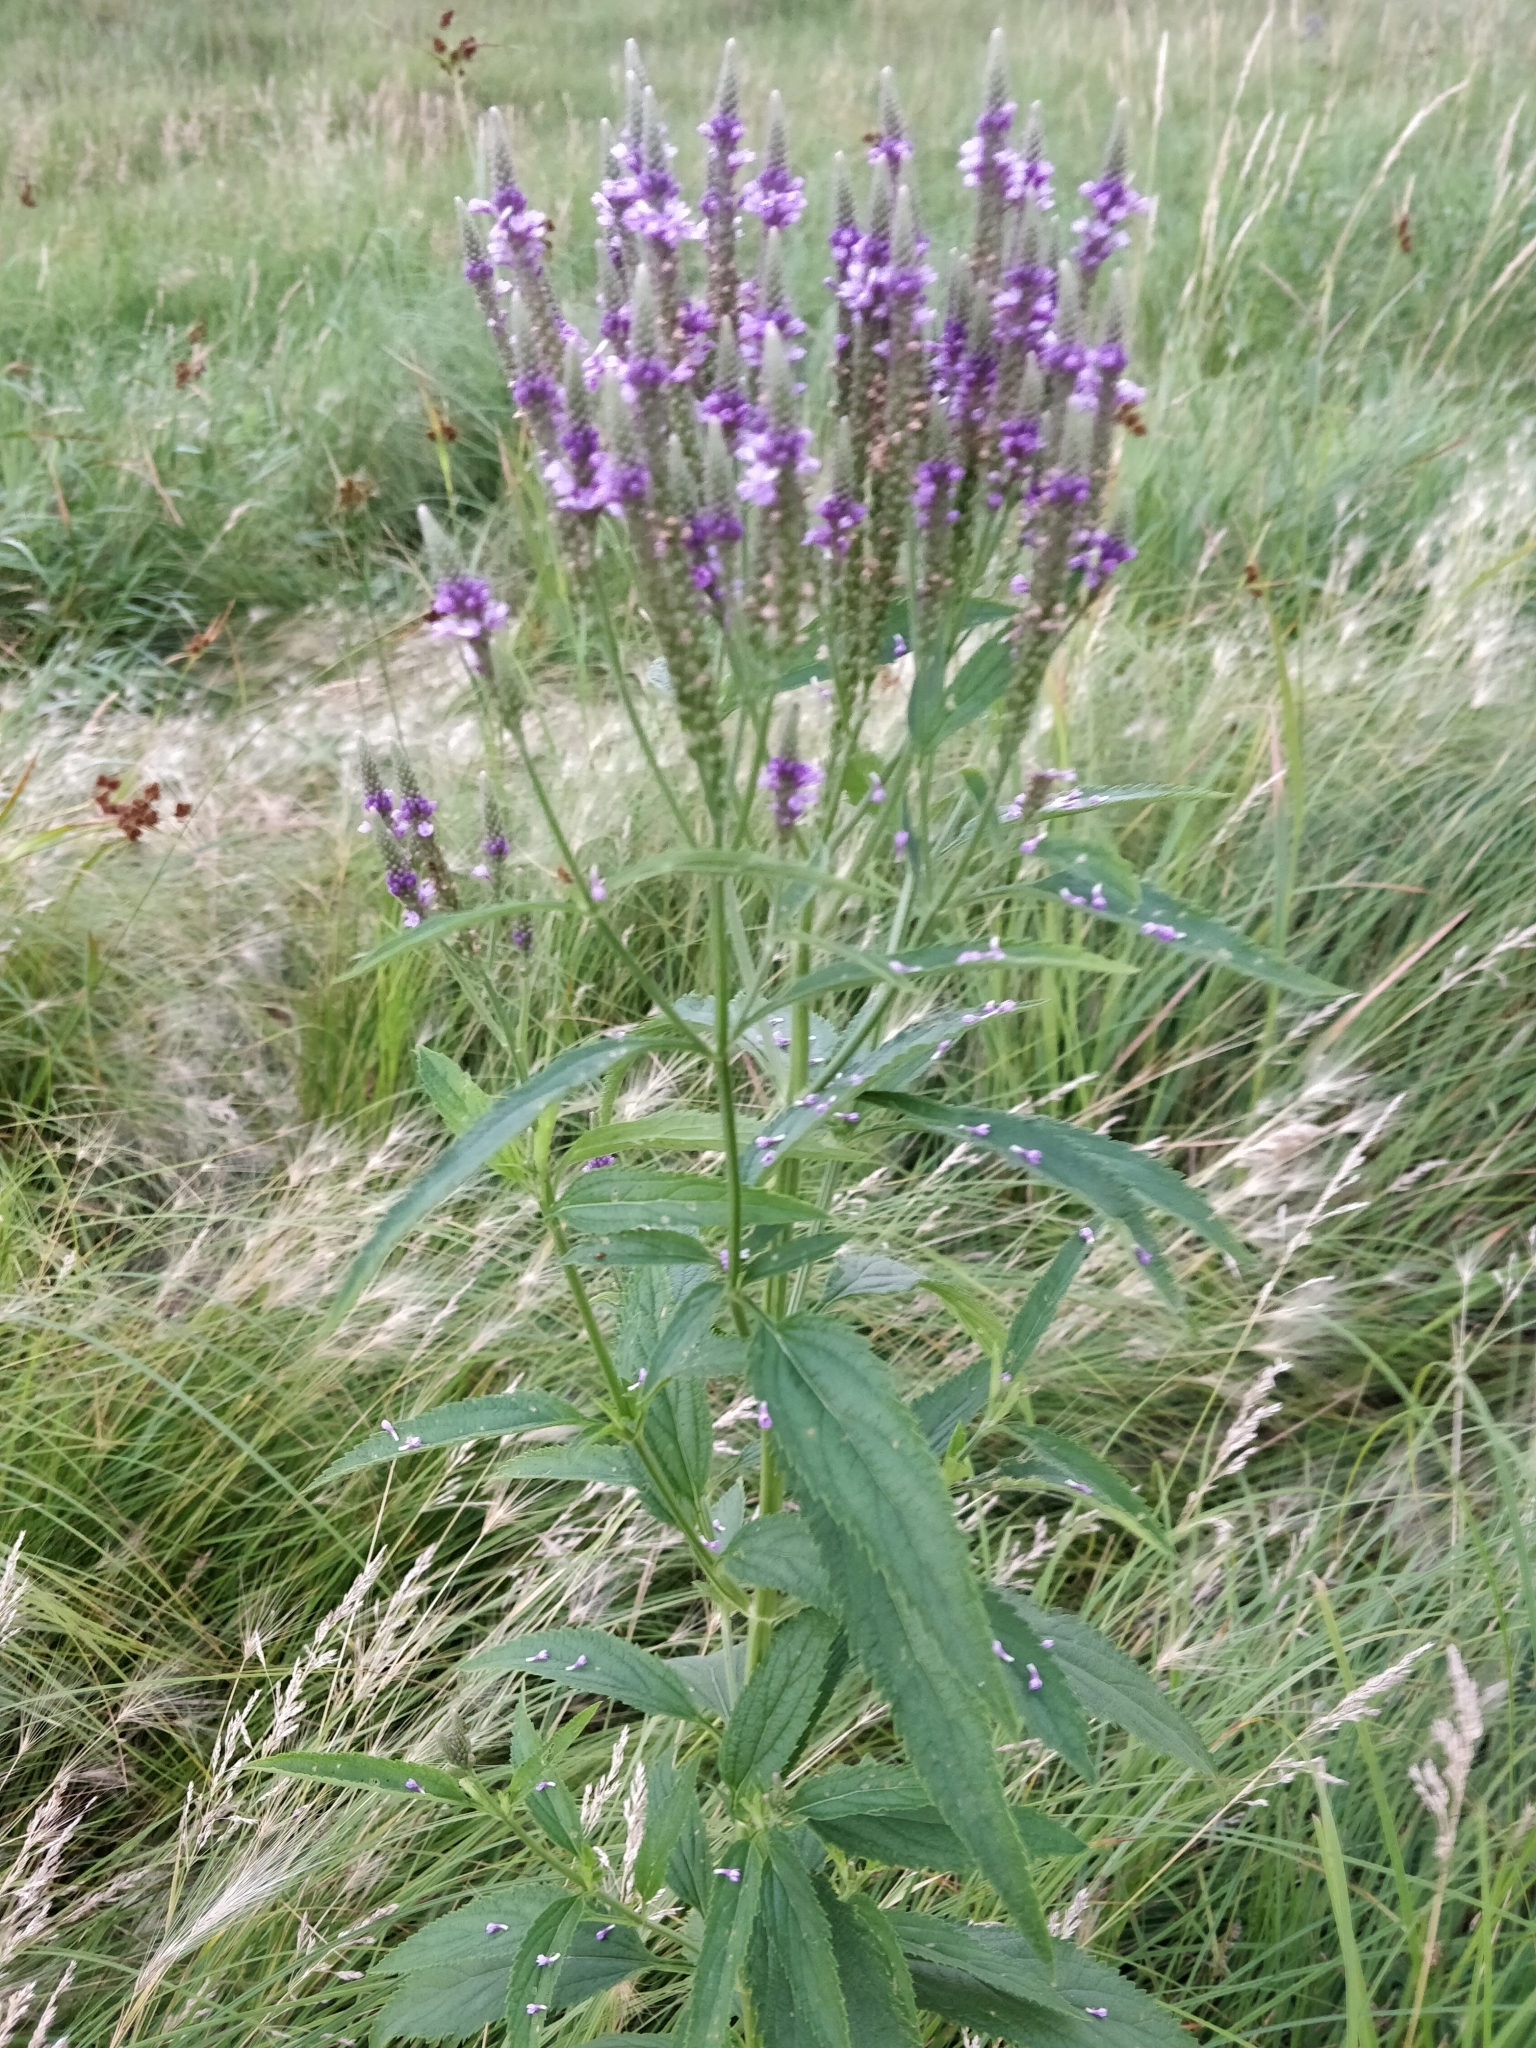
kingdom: Plantae
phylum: Tracheophyta
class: Magnoliopsida
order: Lamiales
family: Verbenaceae
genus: Verbena
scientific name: Verbena hastata
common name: American blue vervain
